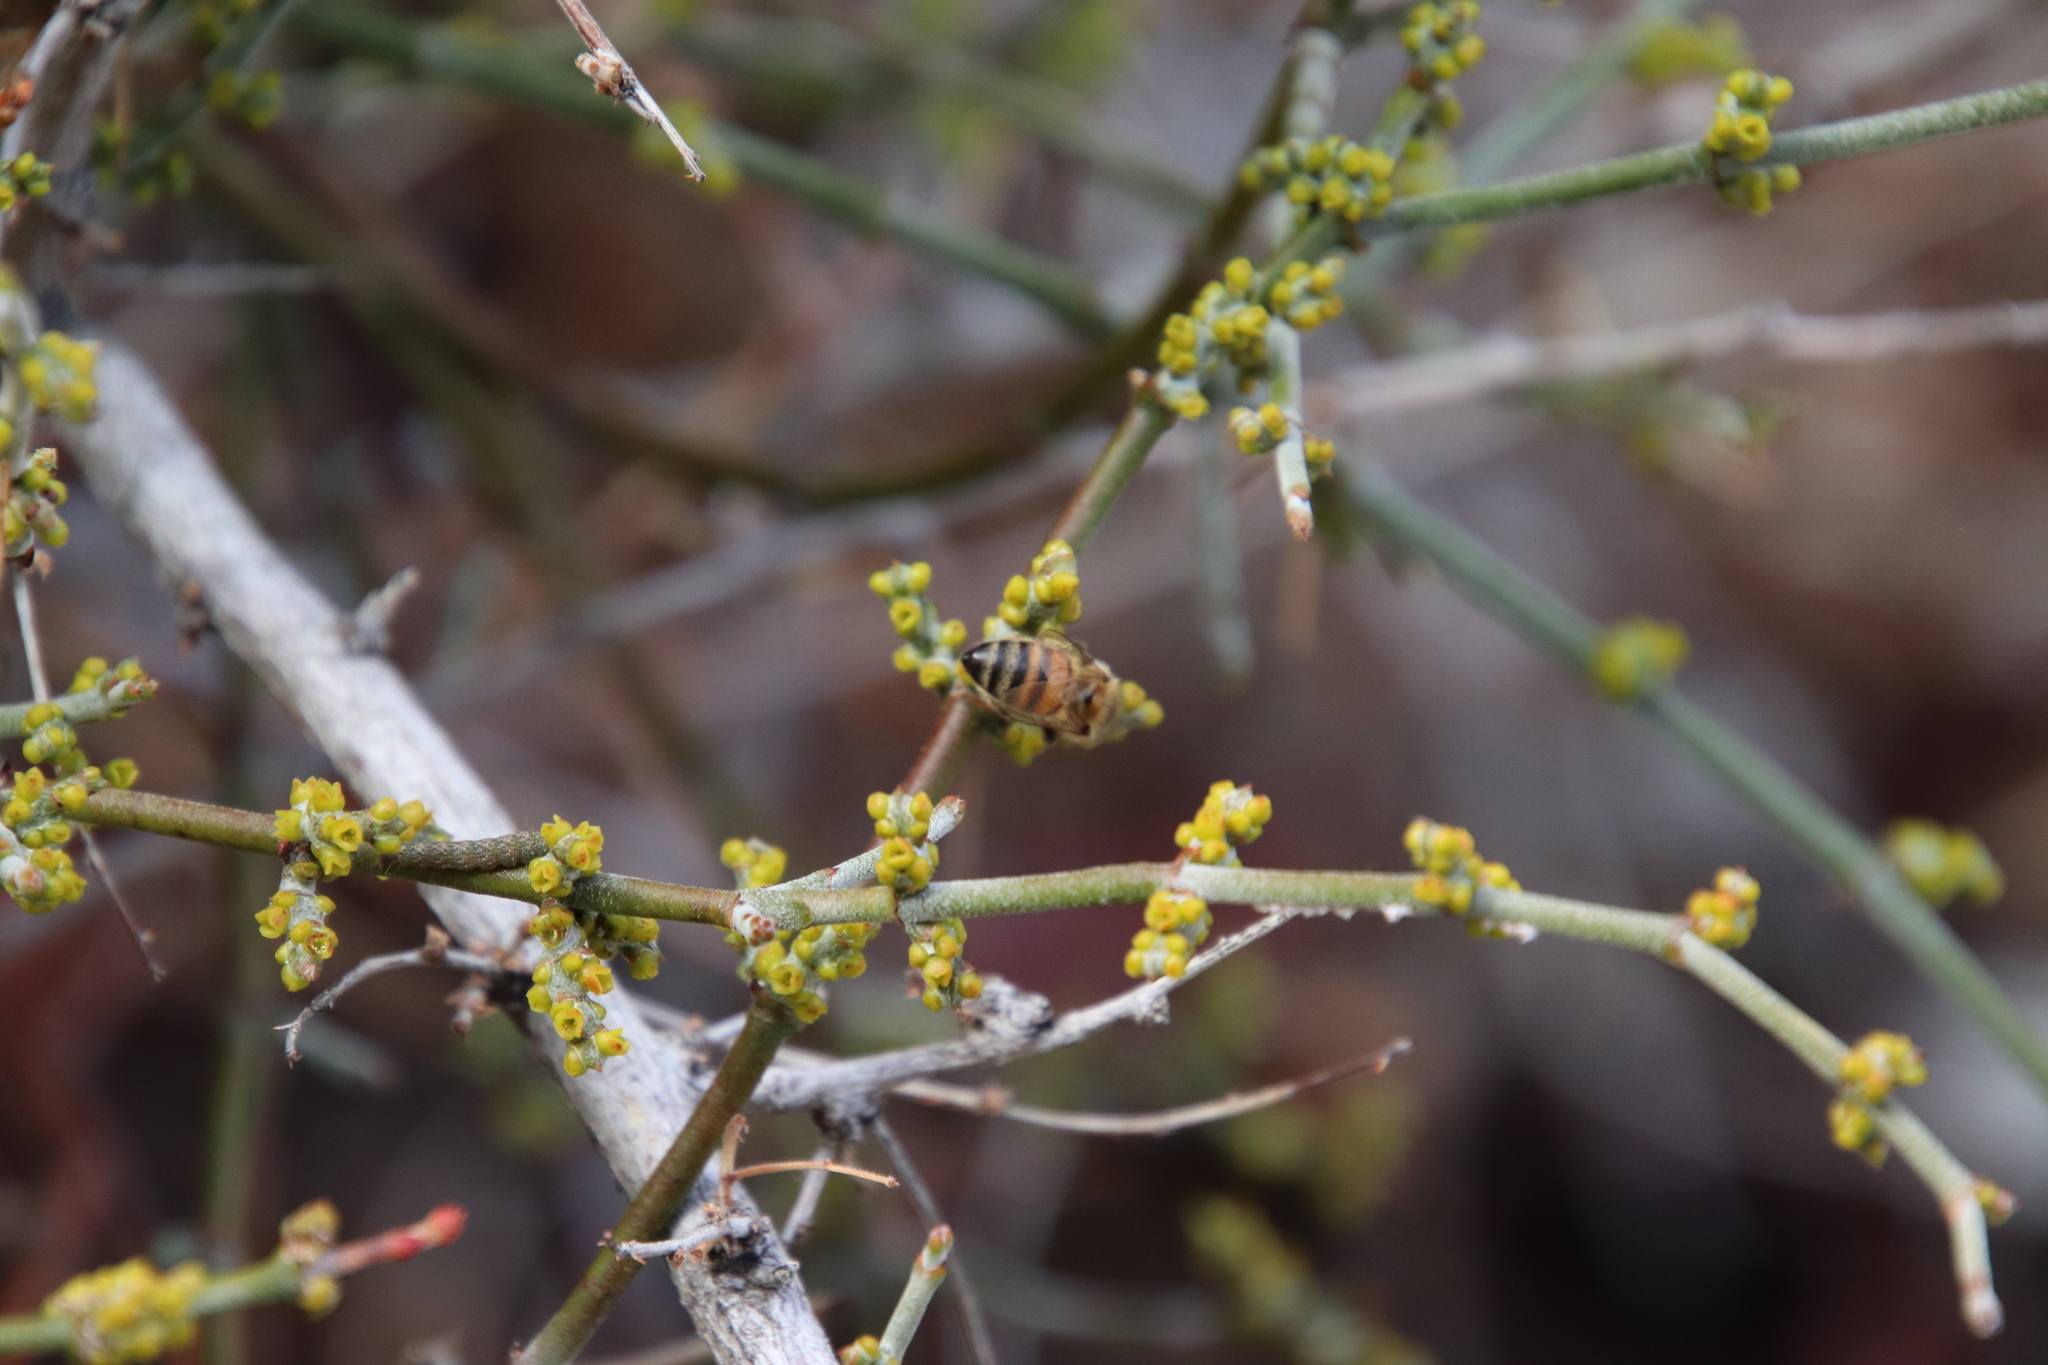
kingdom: Plantae
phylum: Tracheophyta
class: Magnoliopsida
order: Santalales
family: Viscaceae
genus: Phoradendron
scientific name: Phoradendron californicum
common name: Acacia mistletoe
